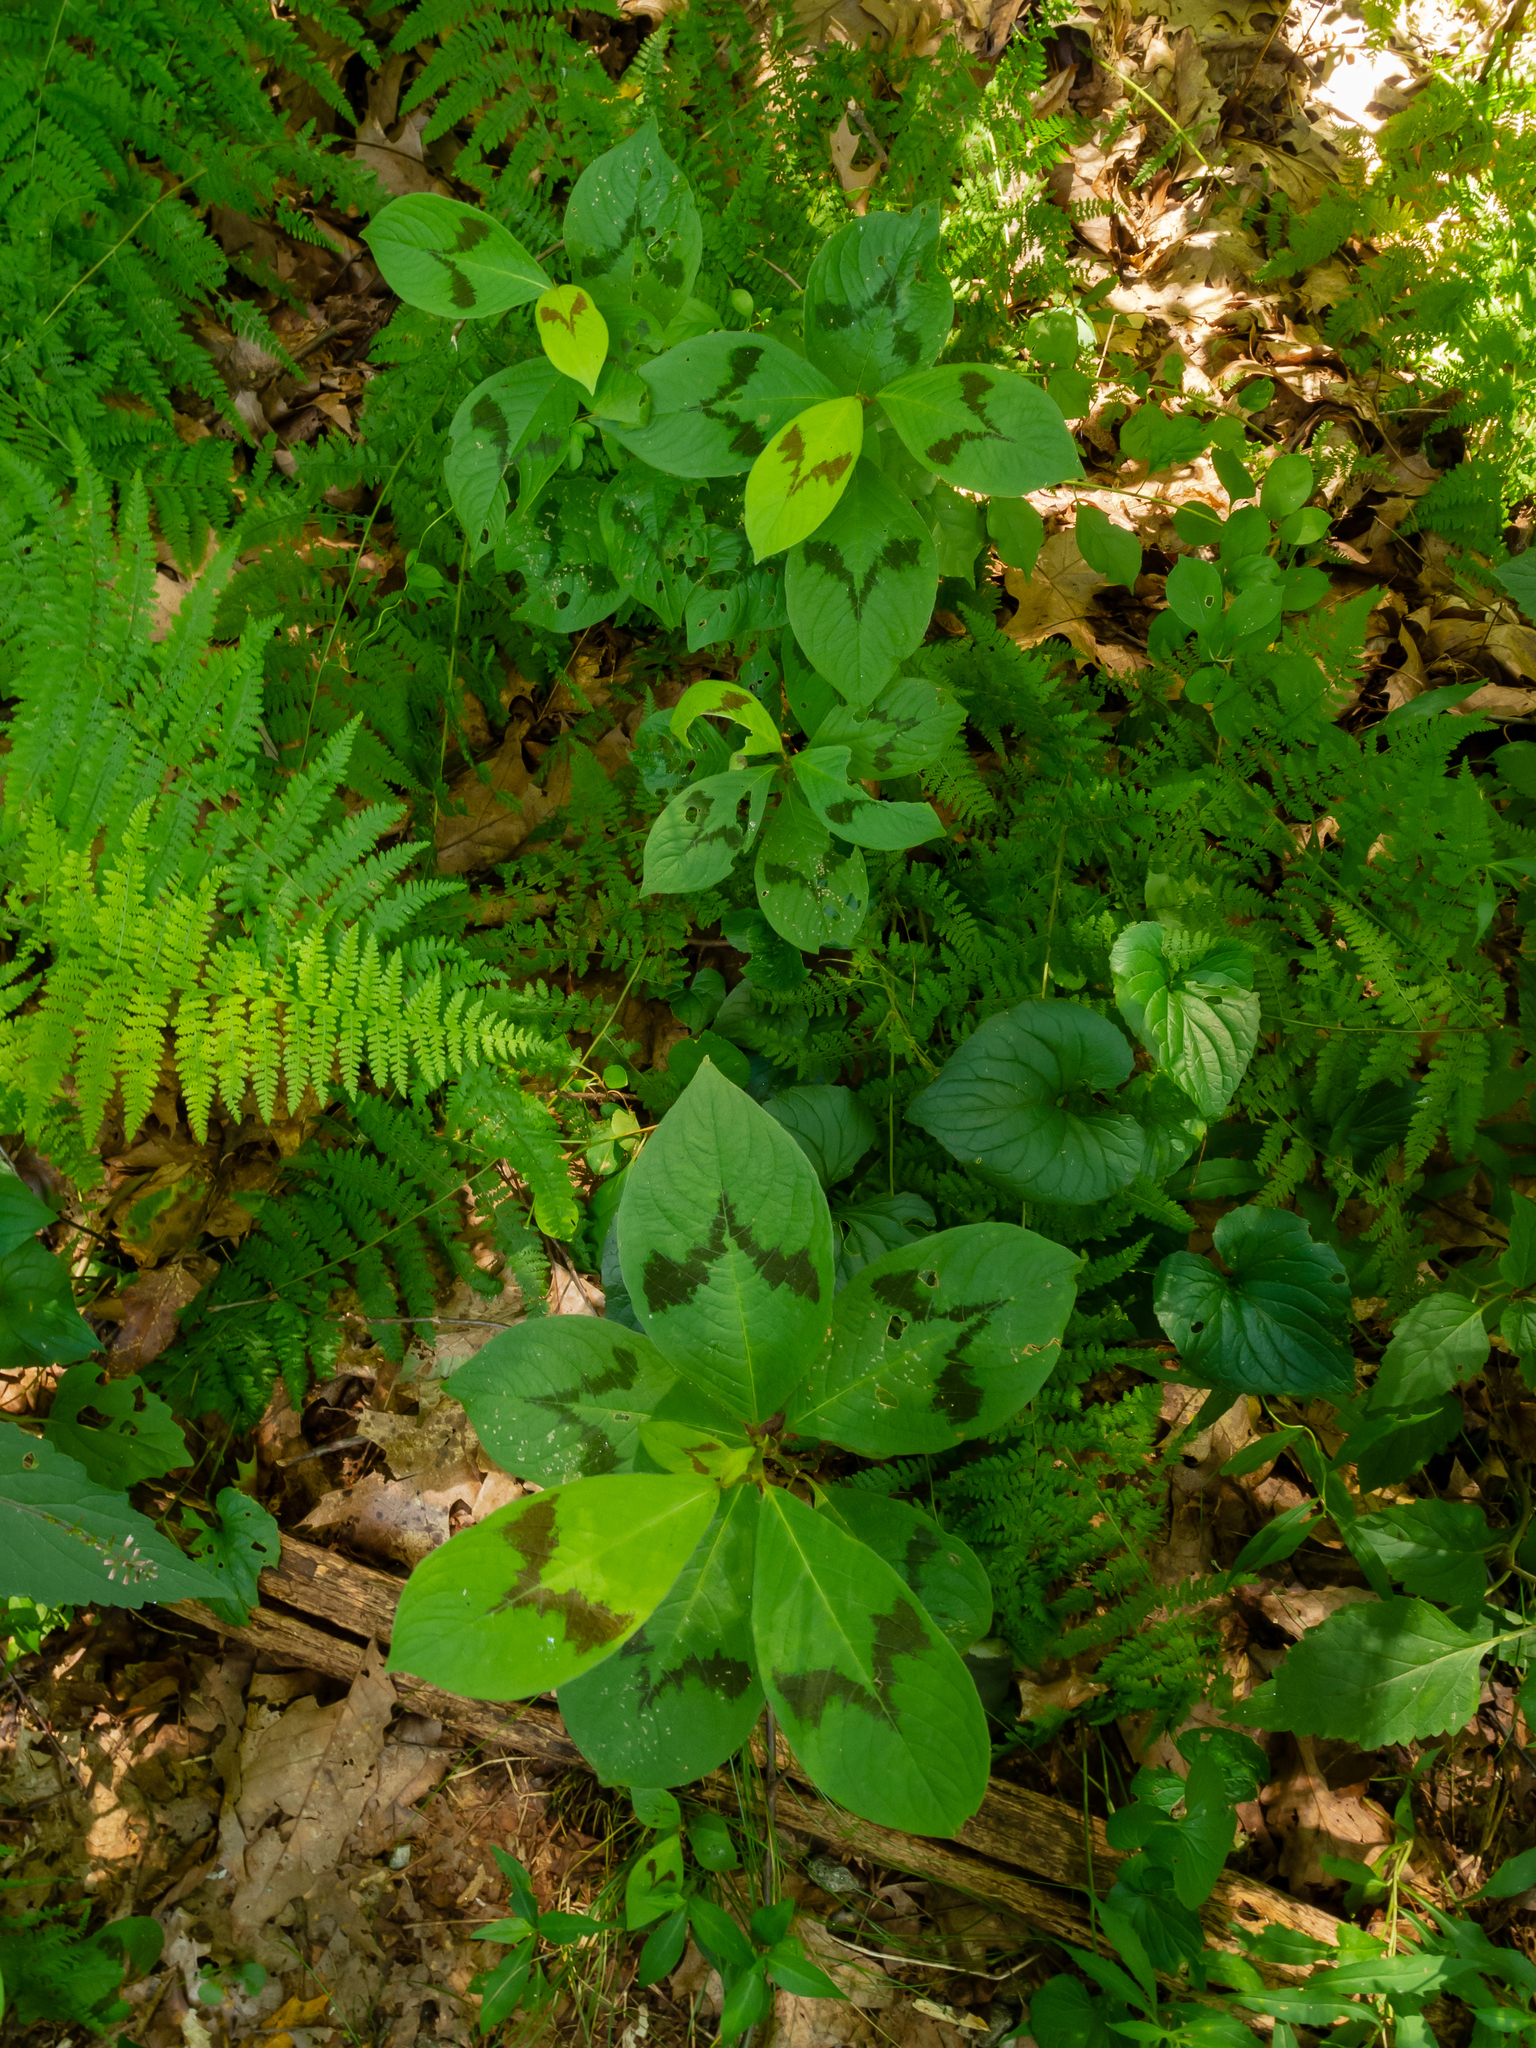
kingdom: Plantae
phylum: Tracheophyta
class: Magnoliopsida
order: Caryophyllales
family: Polygonaceae
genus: Persicaria
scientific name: Persicaria filiformis
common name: Asian jumpseed
